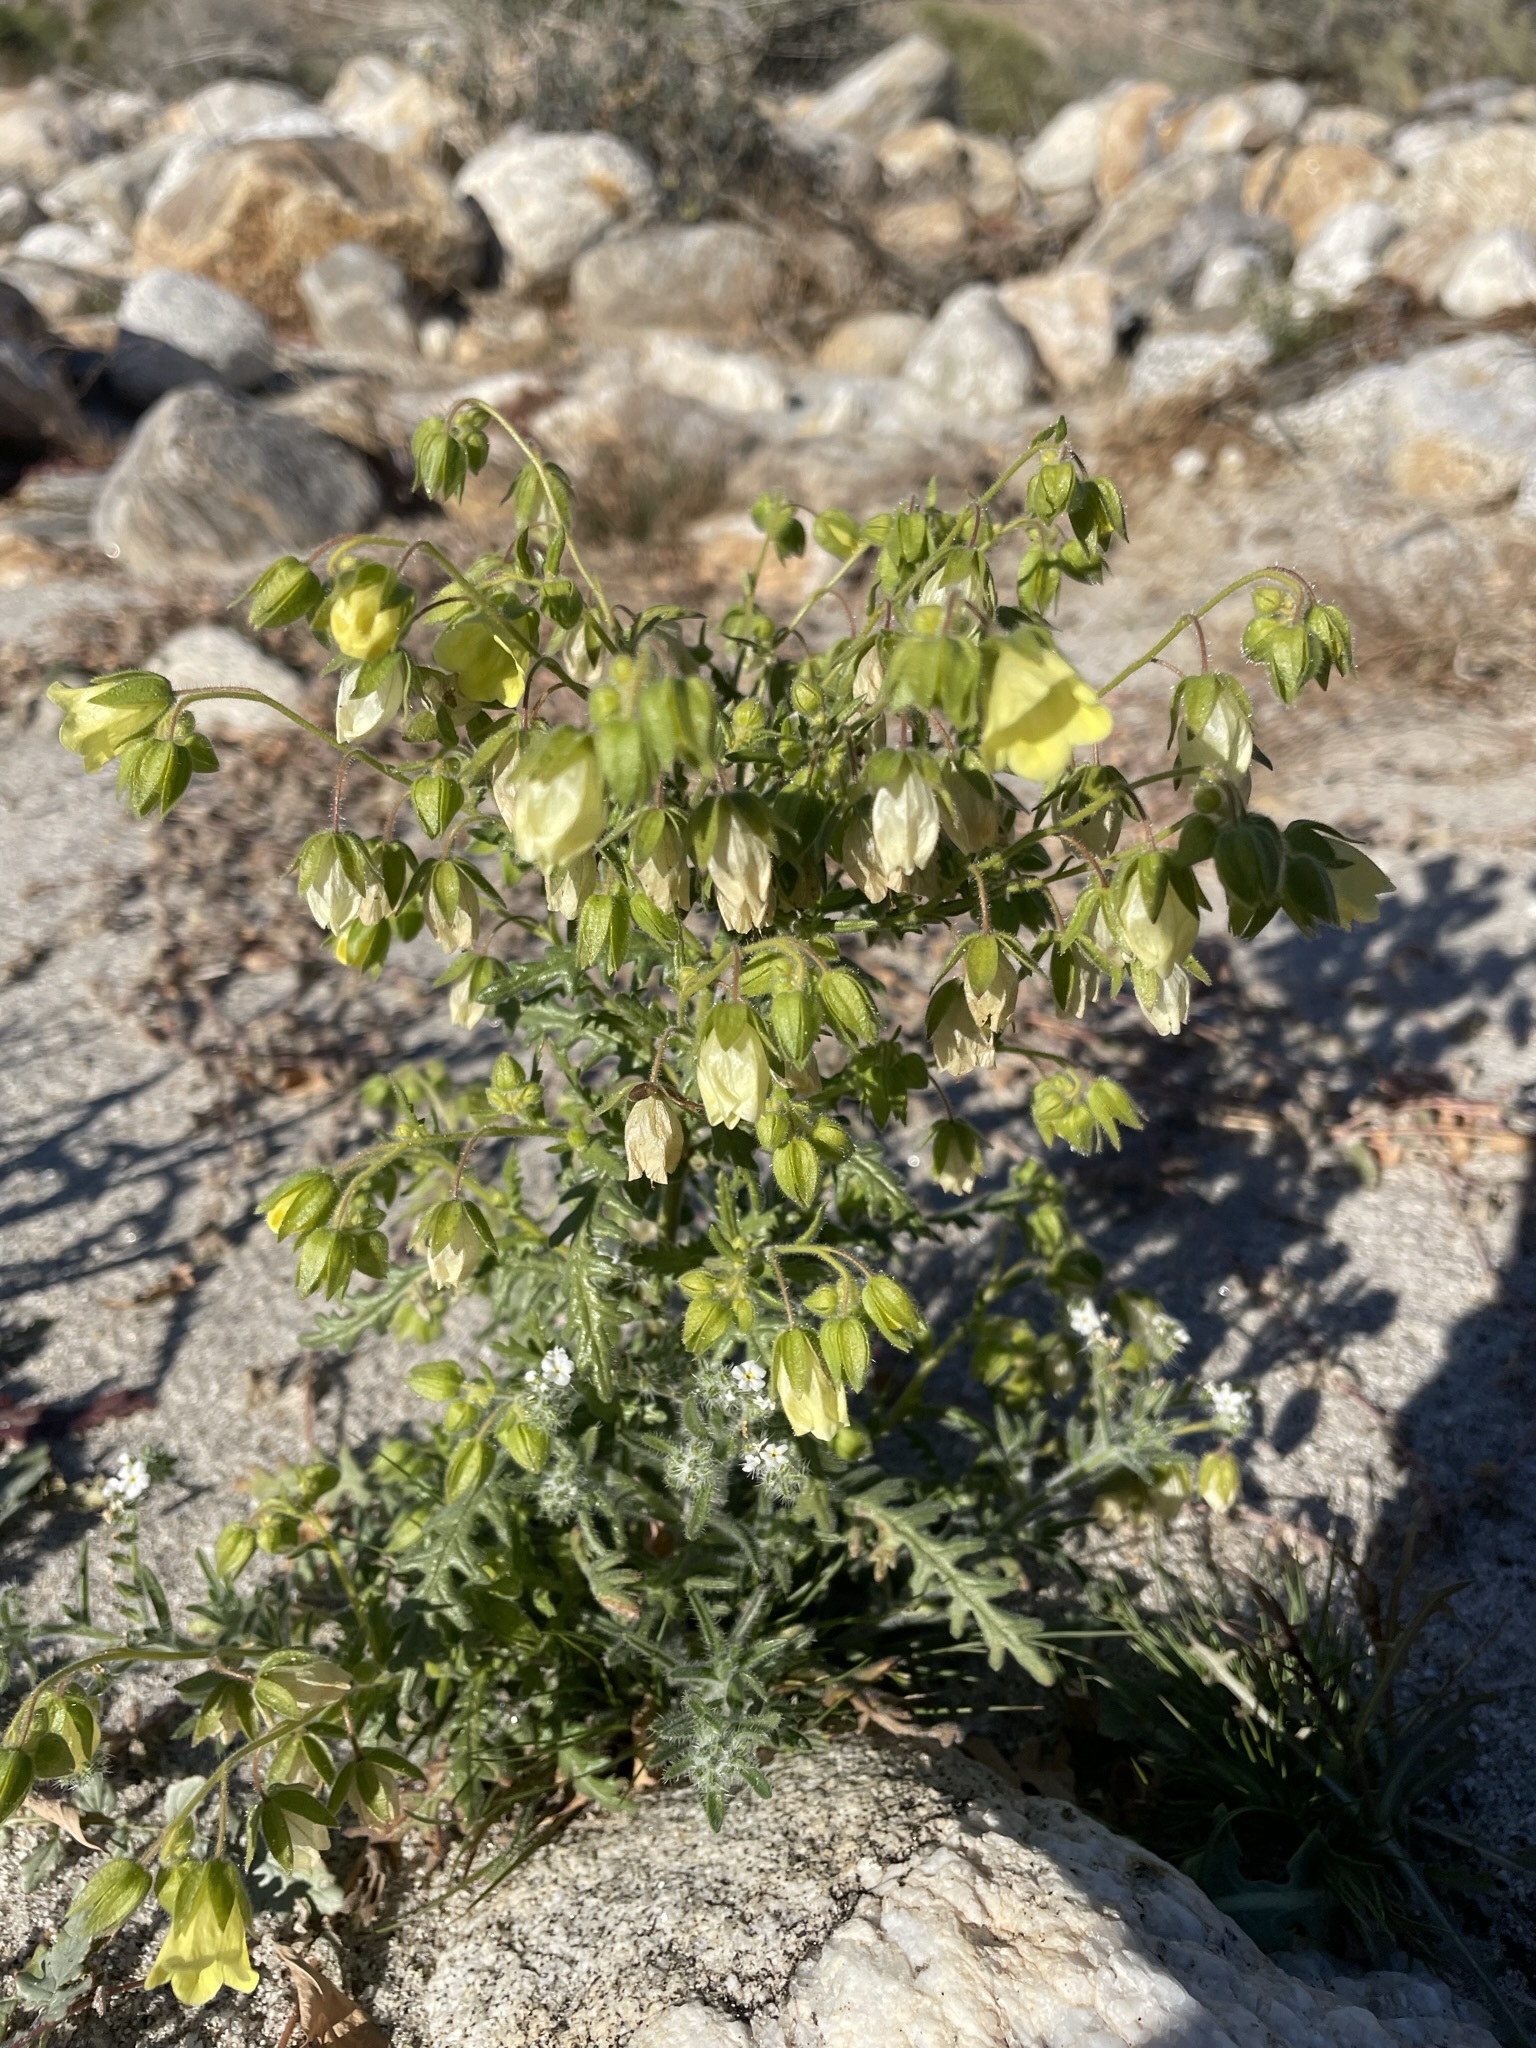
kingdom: Plantae
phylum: Tracheophyta
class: Magnoliopsida
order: Boraginales
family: Hydrophyllaceae
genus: Emmenanthe
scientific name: Emmenanthe penduliflora
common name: Whispering-bells
